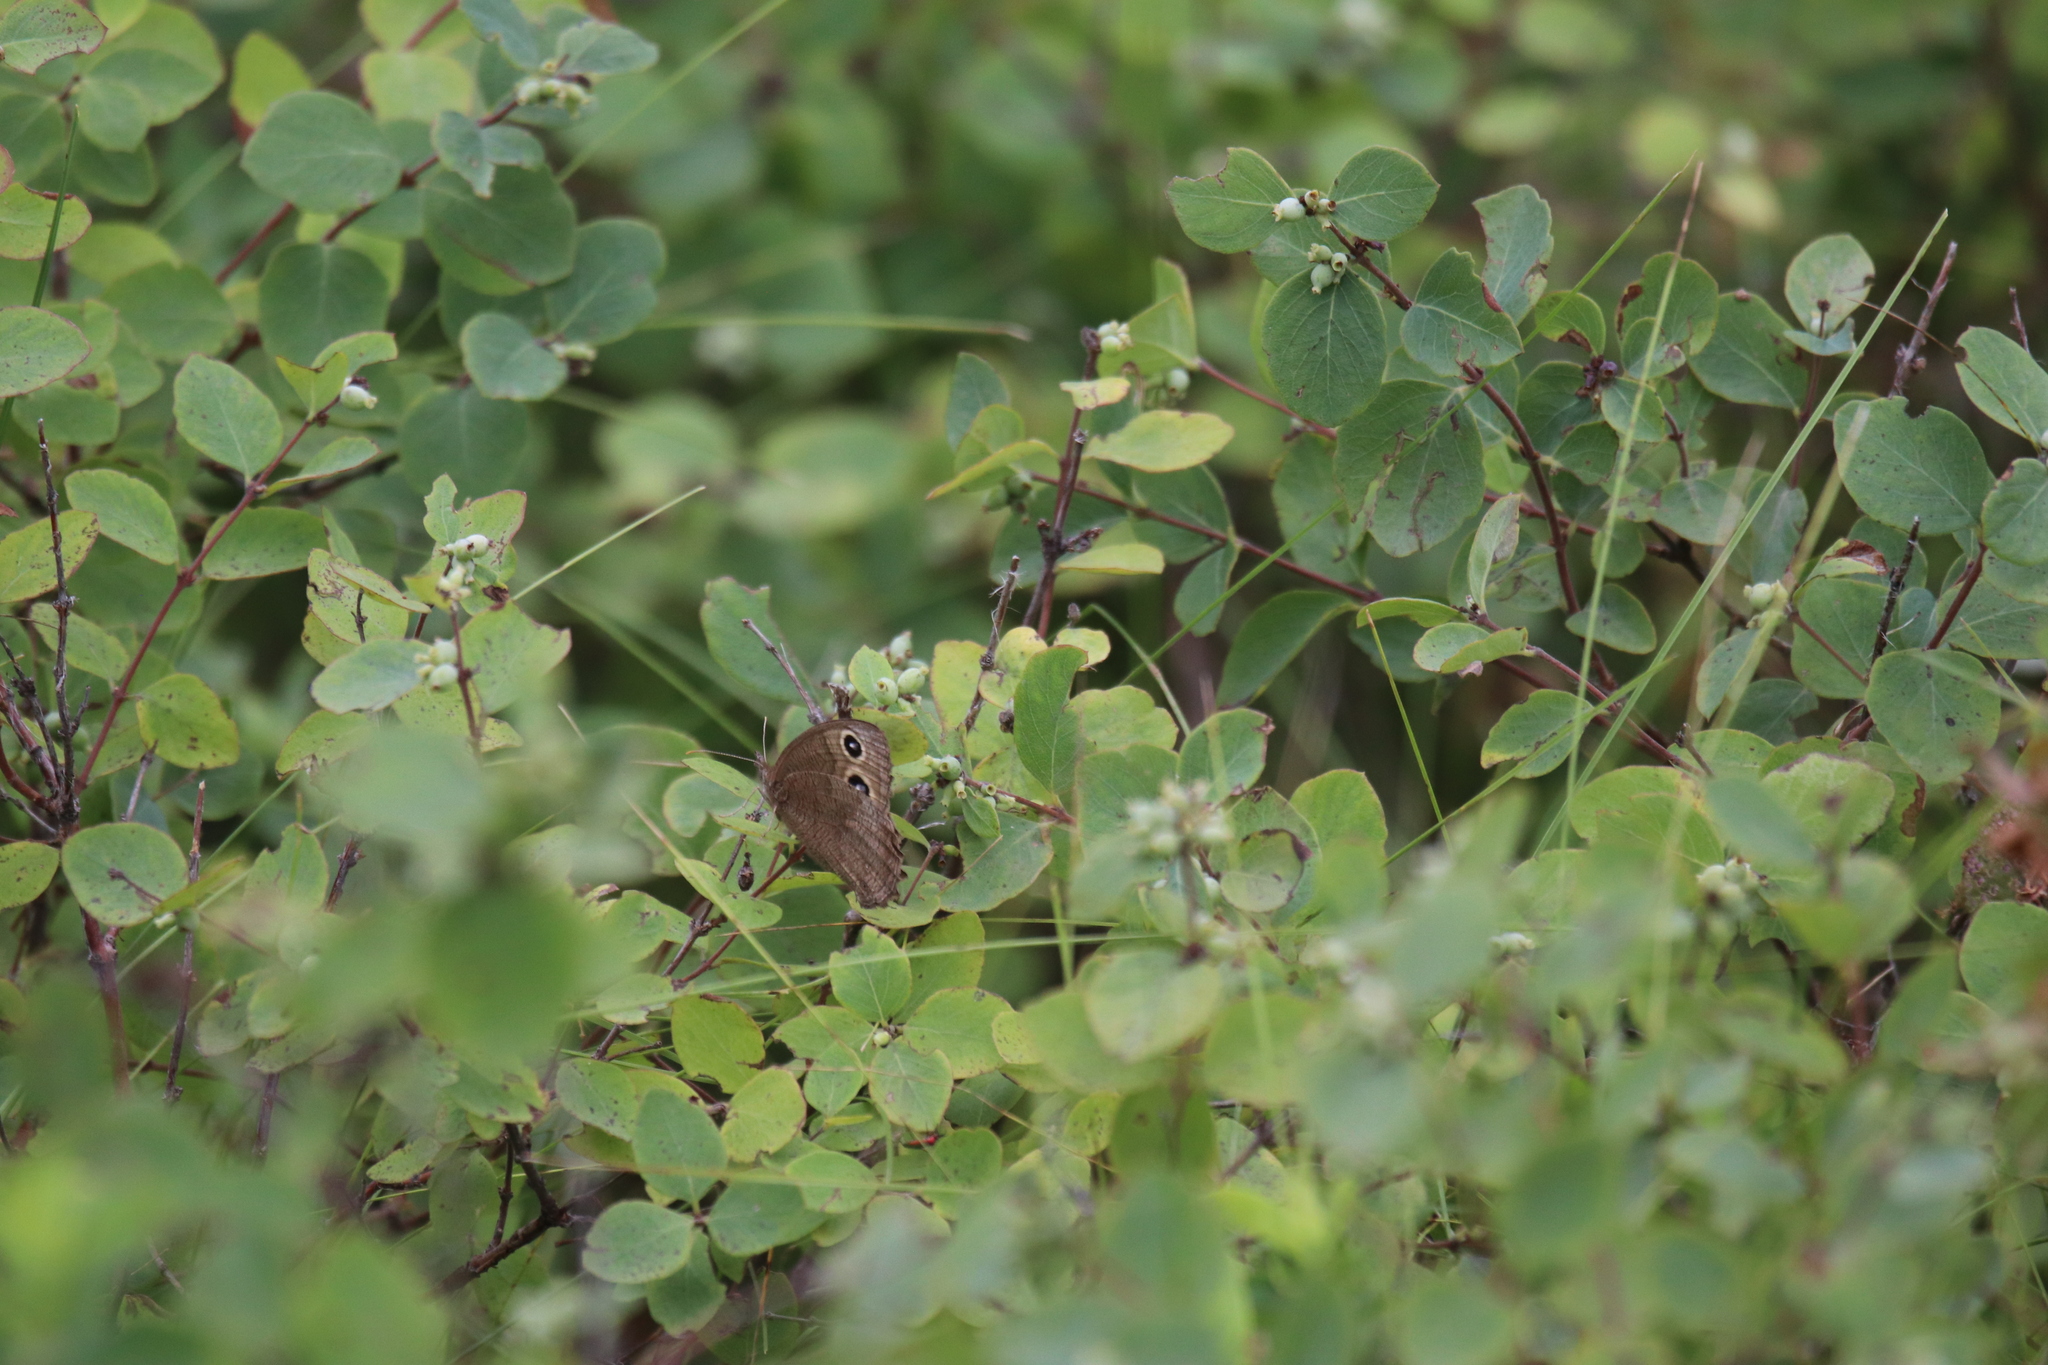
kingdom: Animalia
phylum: Arthropoda
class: Insecta
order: Lepidoptera
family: Nymphalidae
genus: Cercyonis
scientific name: Cercyonis pegala
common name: Common wood-nymph
